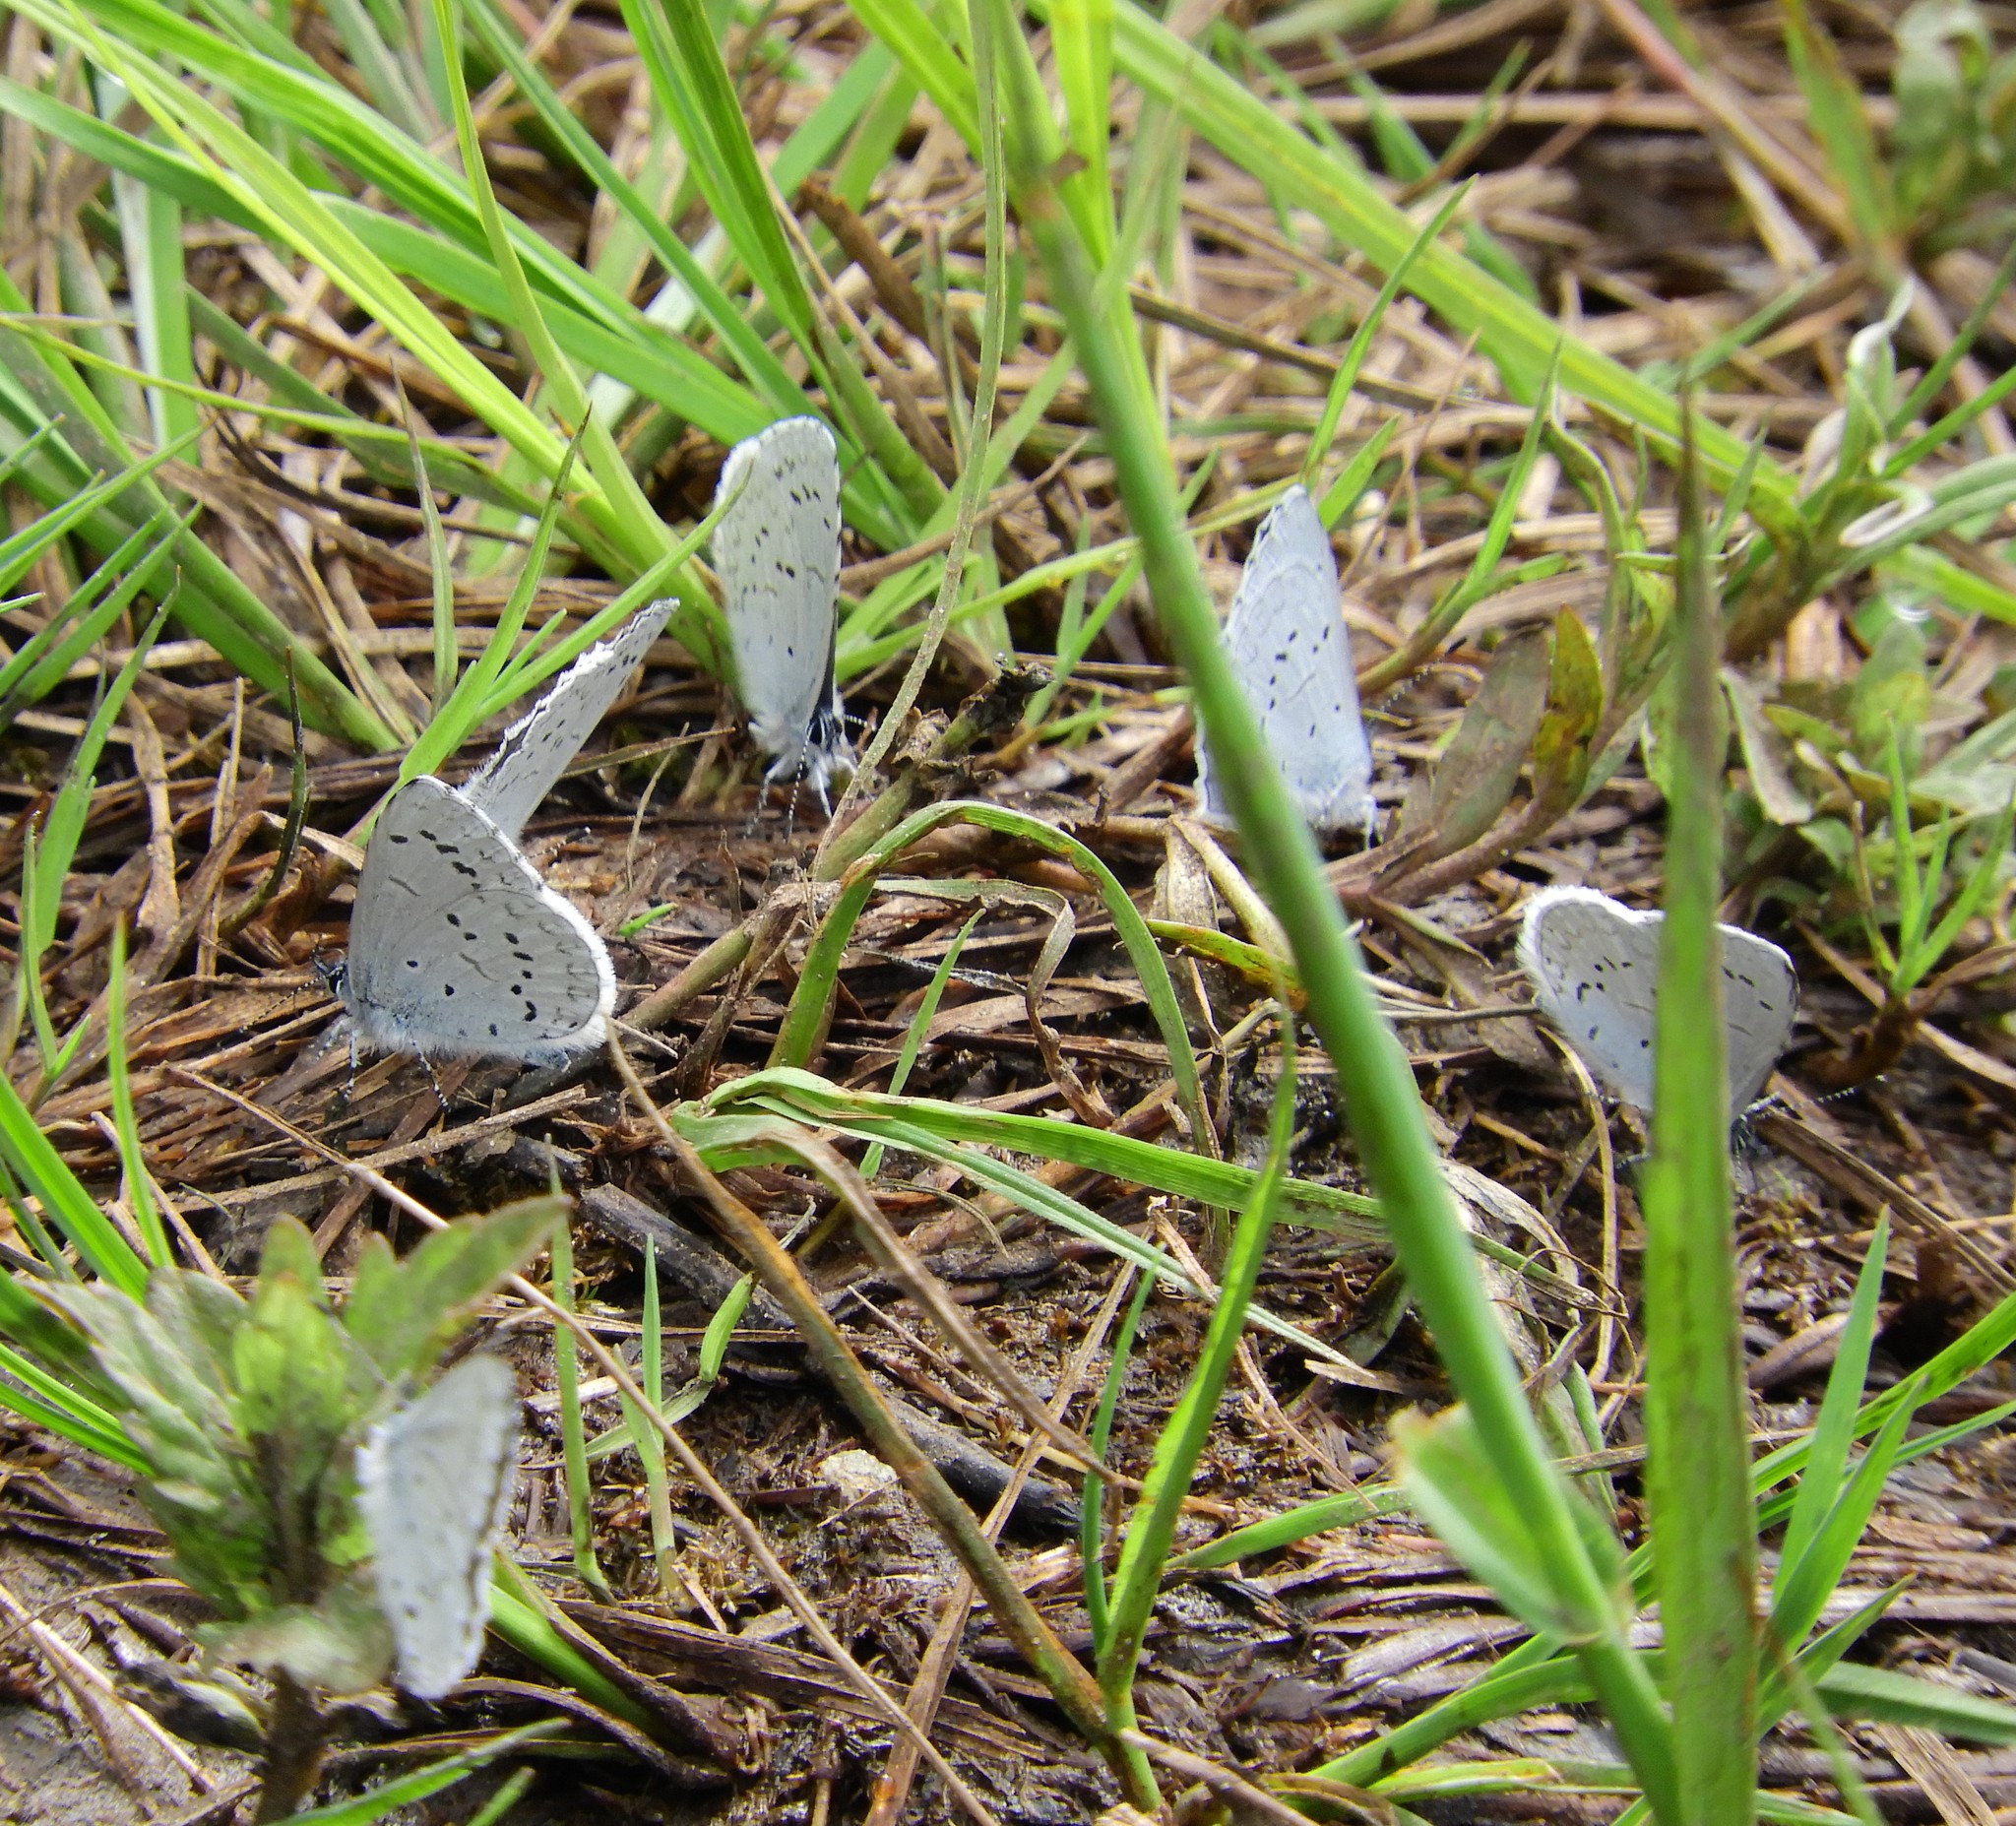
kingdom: Animalia
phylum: Arthropoda
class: Insecta
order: Lepidoptera
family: Lycaenidae
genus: Celastrina
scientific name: Celastrina ladon
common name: Spring azure
